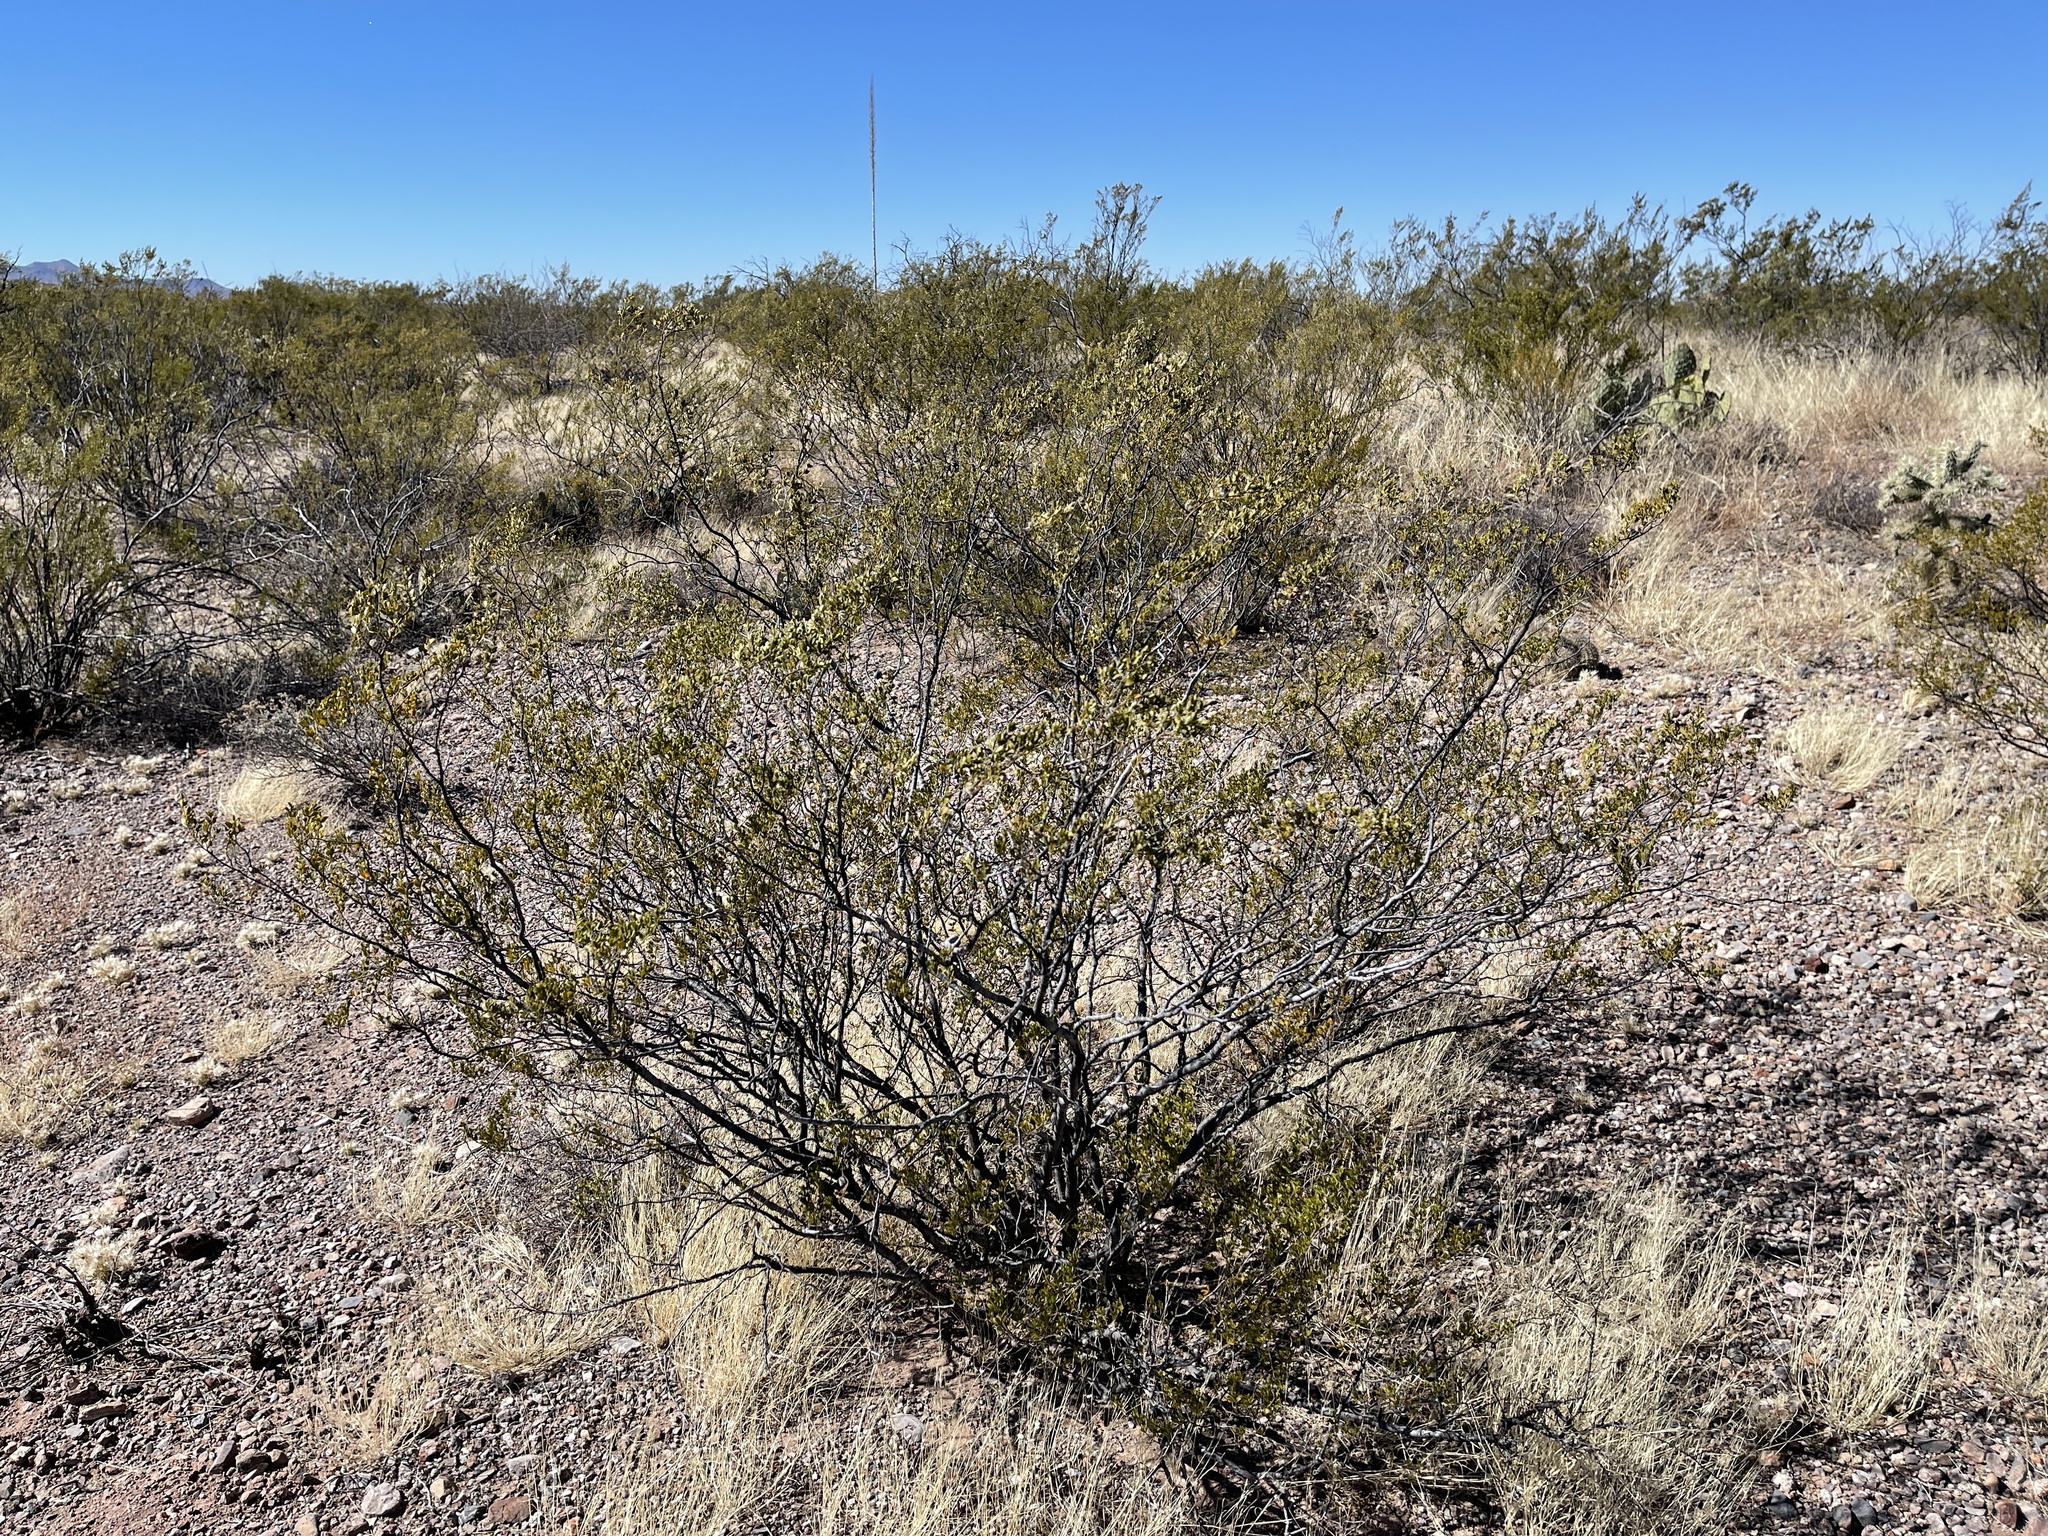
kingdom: Plantae
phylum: Tracheophyta
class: Magnoliopsida
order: Zygophyllales
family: Zygophyllaceae
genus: Larrea
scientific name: Larrea tridentata
